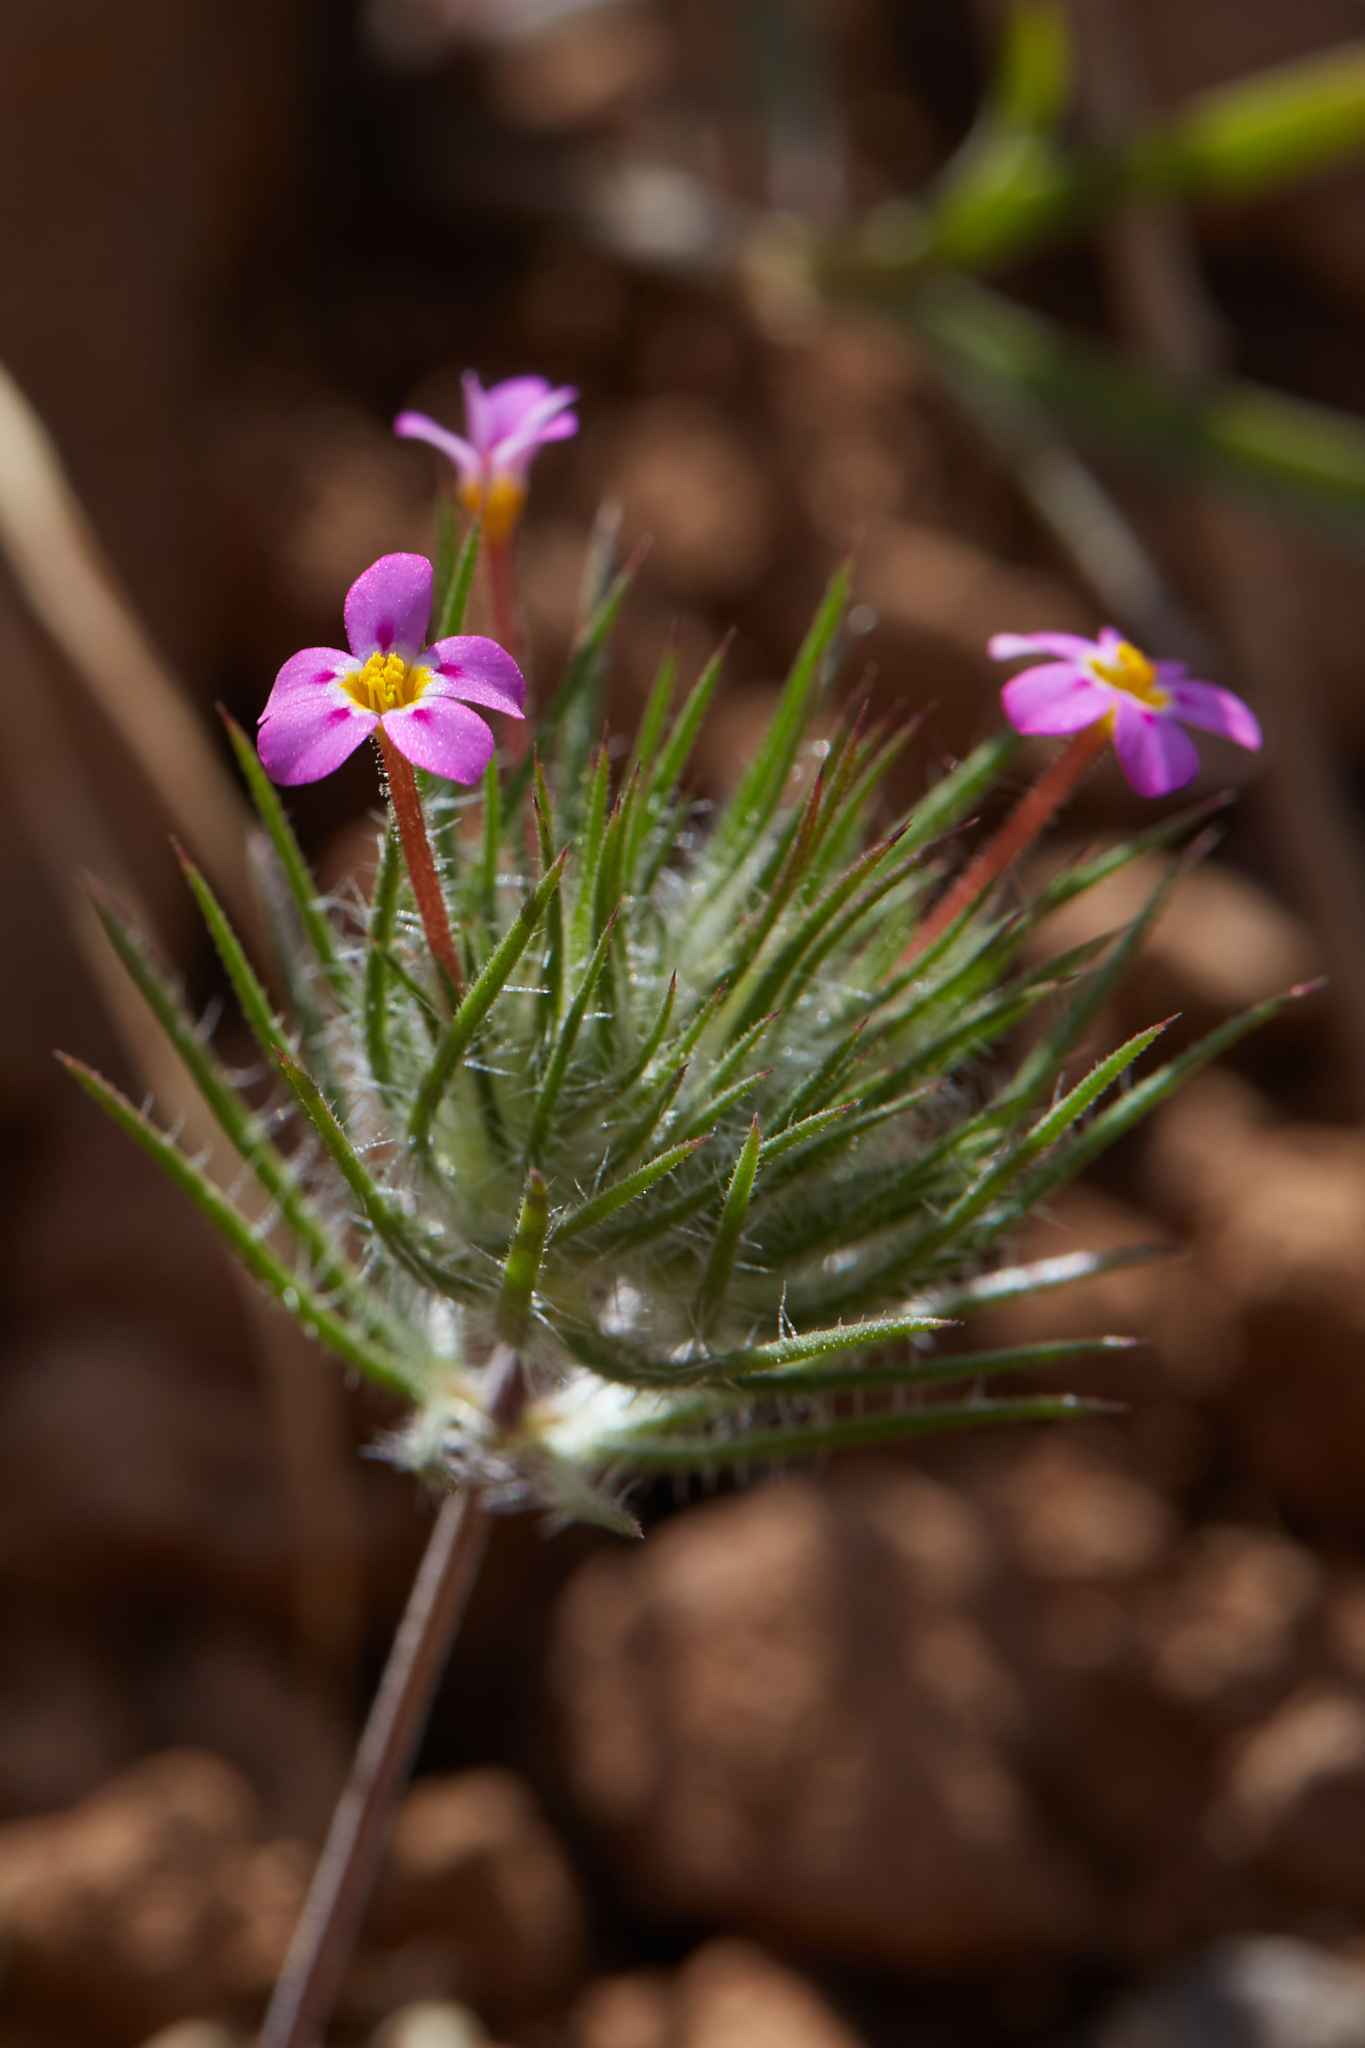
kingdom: Plantae
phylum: Tracheophyta
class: Magnoliopsida
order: Ericales
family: Polemoniaceae
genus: Leptosiphon
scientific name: Leptosiphon ciliatus
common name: Whiskerbrush
